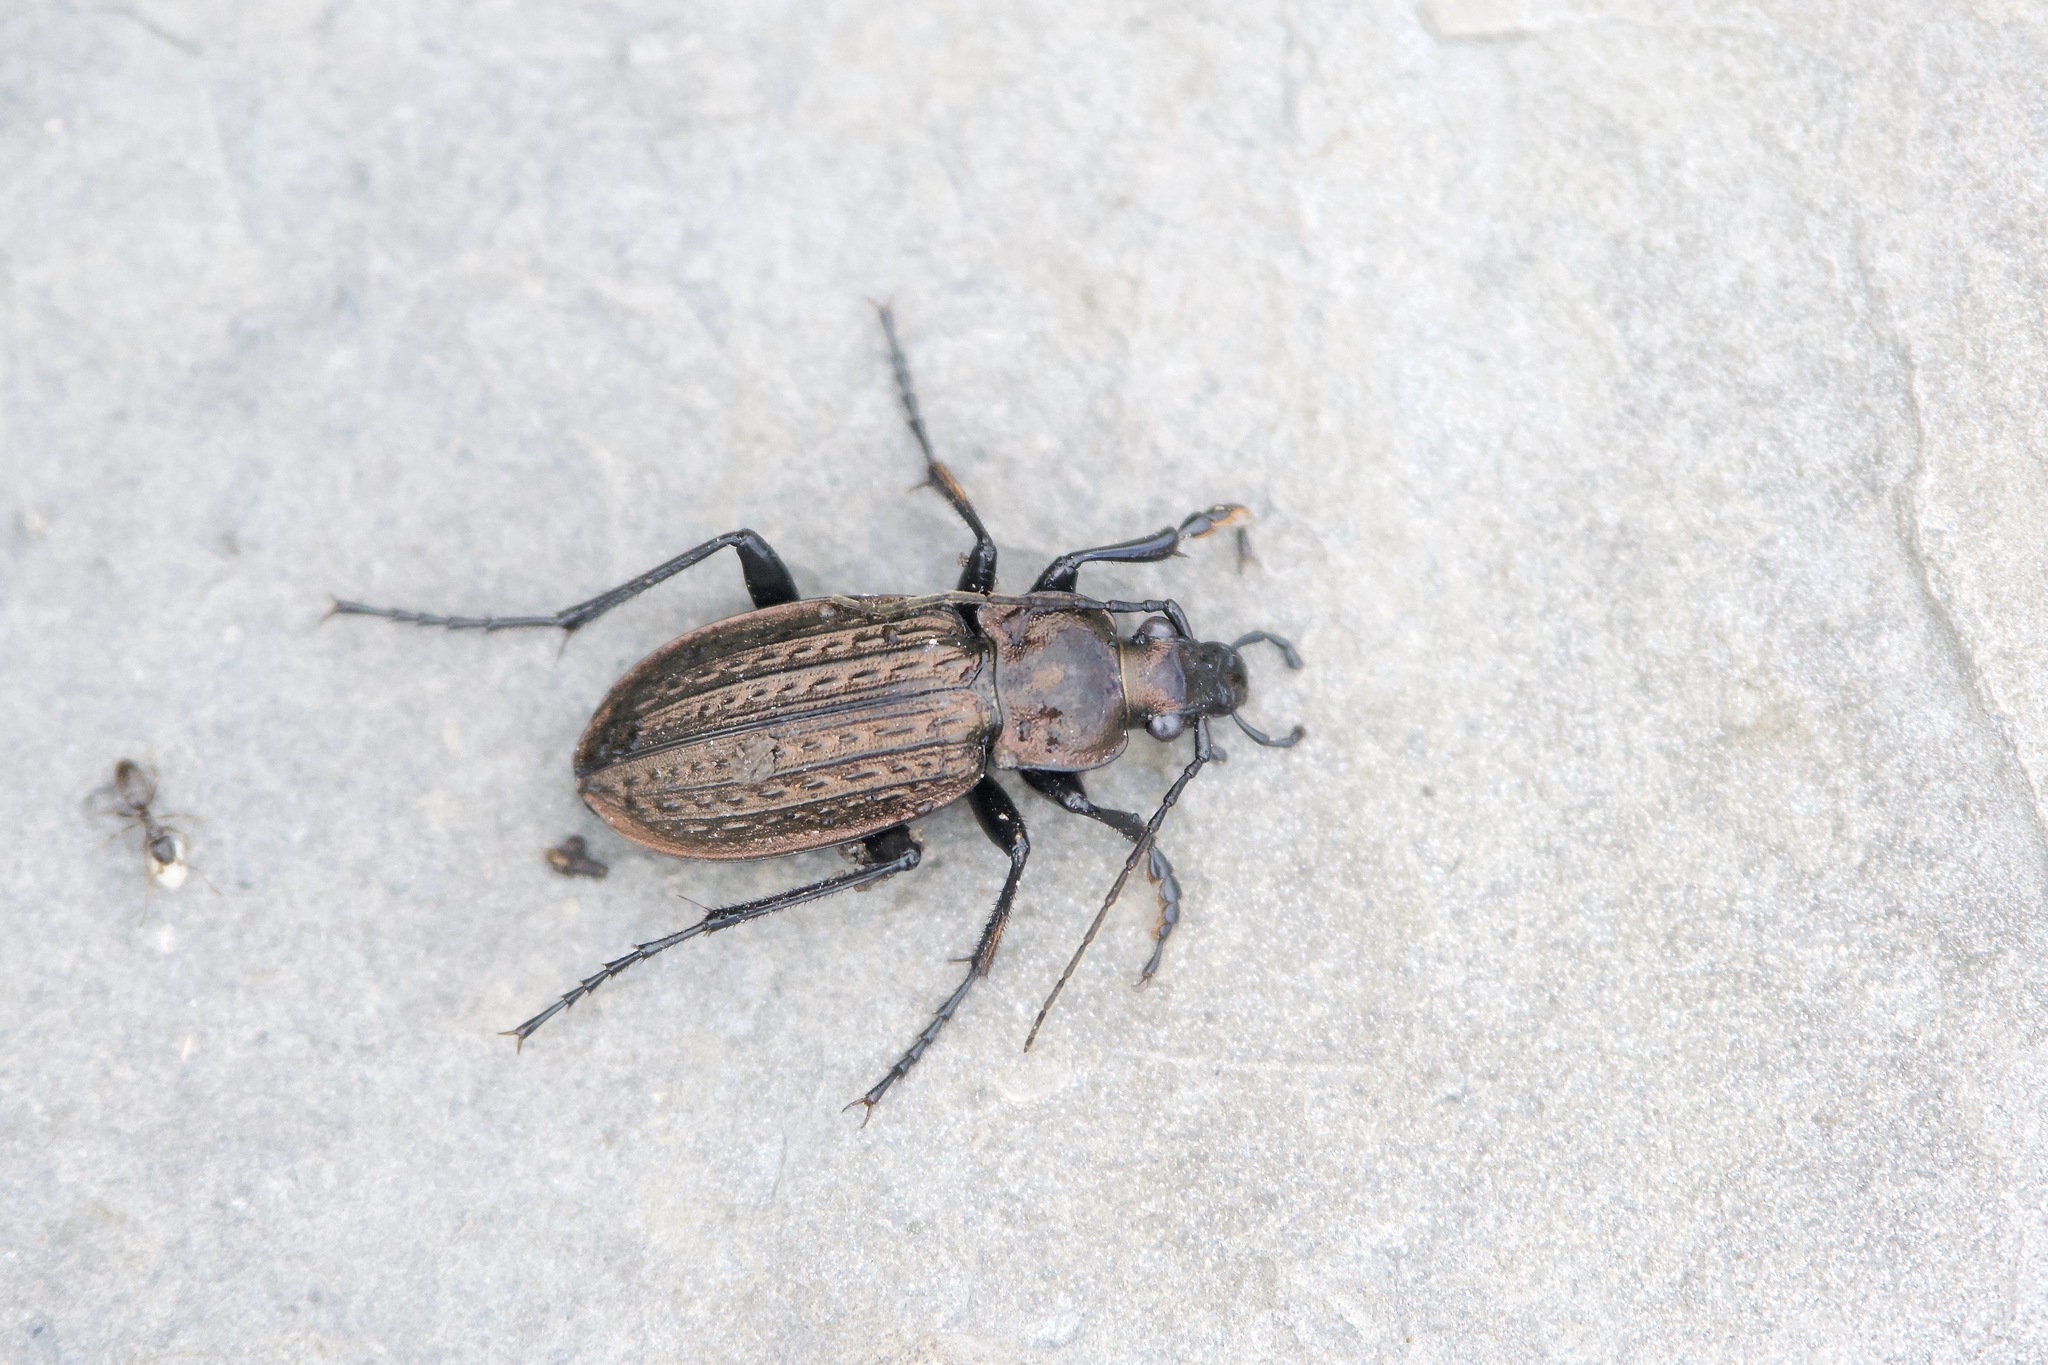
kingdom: Animalia
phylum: Arthropoda
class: Insecta
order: Coleoptera
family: Carabidae
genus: Carabus
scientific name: Carabus granulatus
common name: Granulate ground beetle
